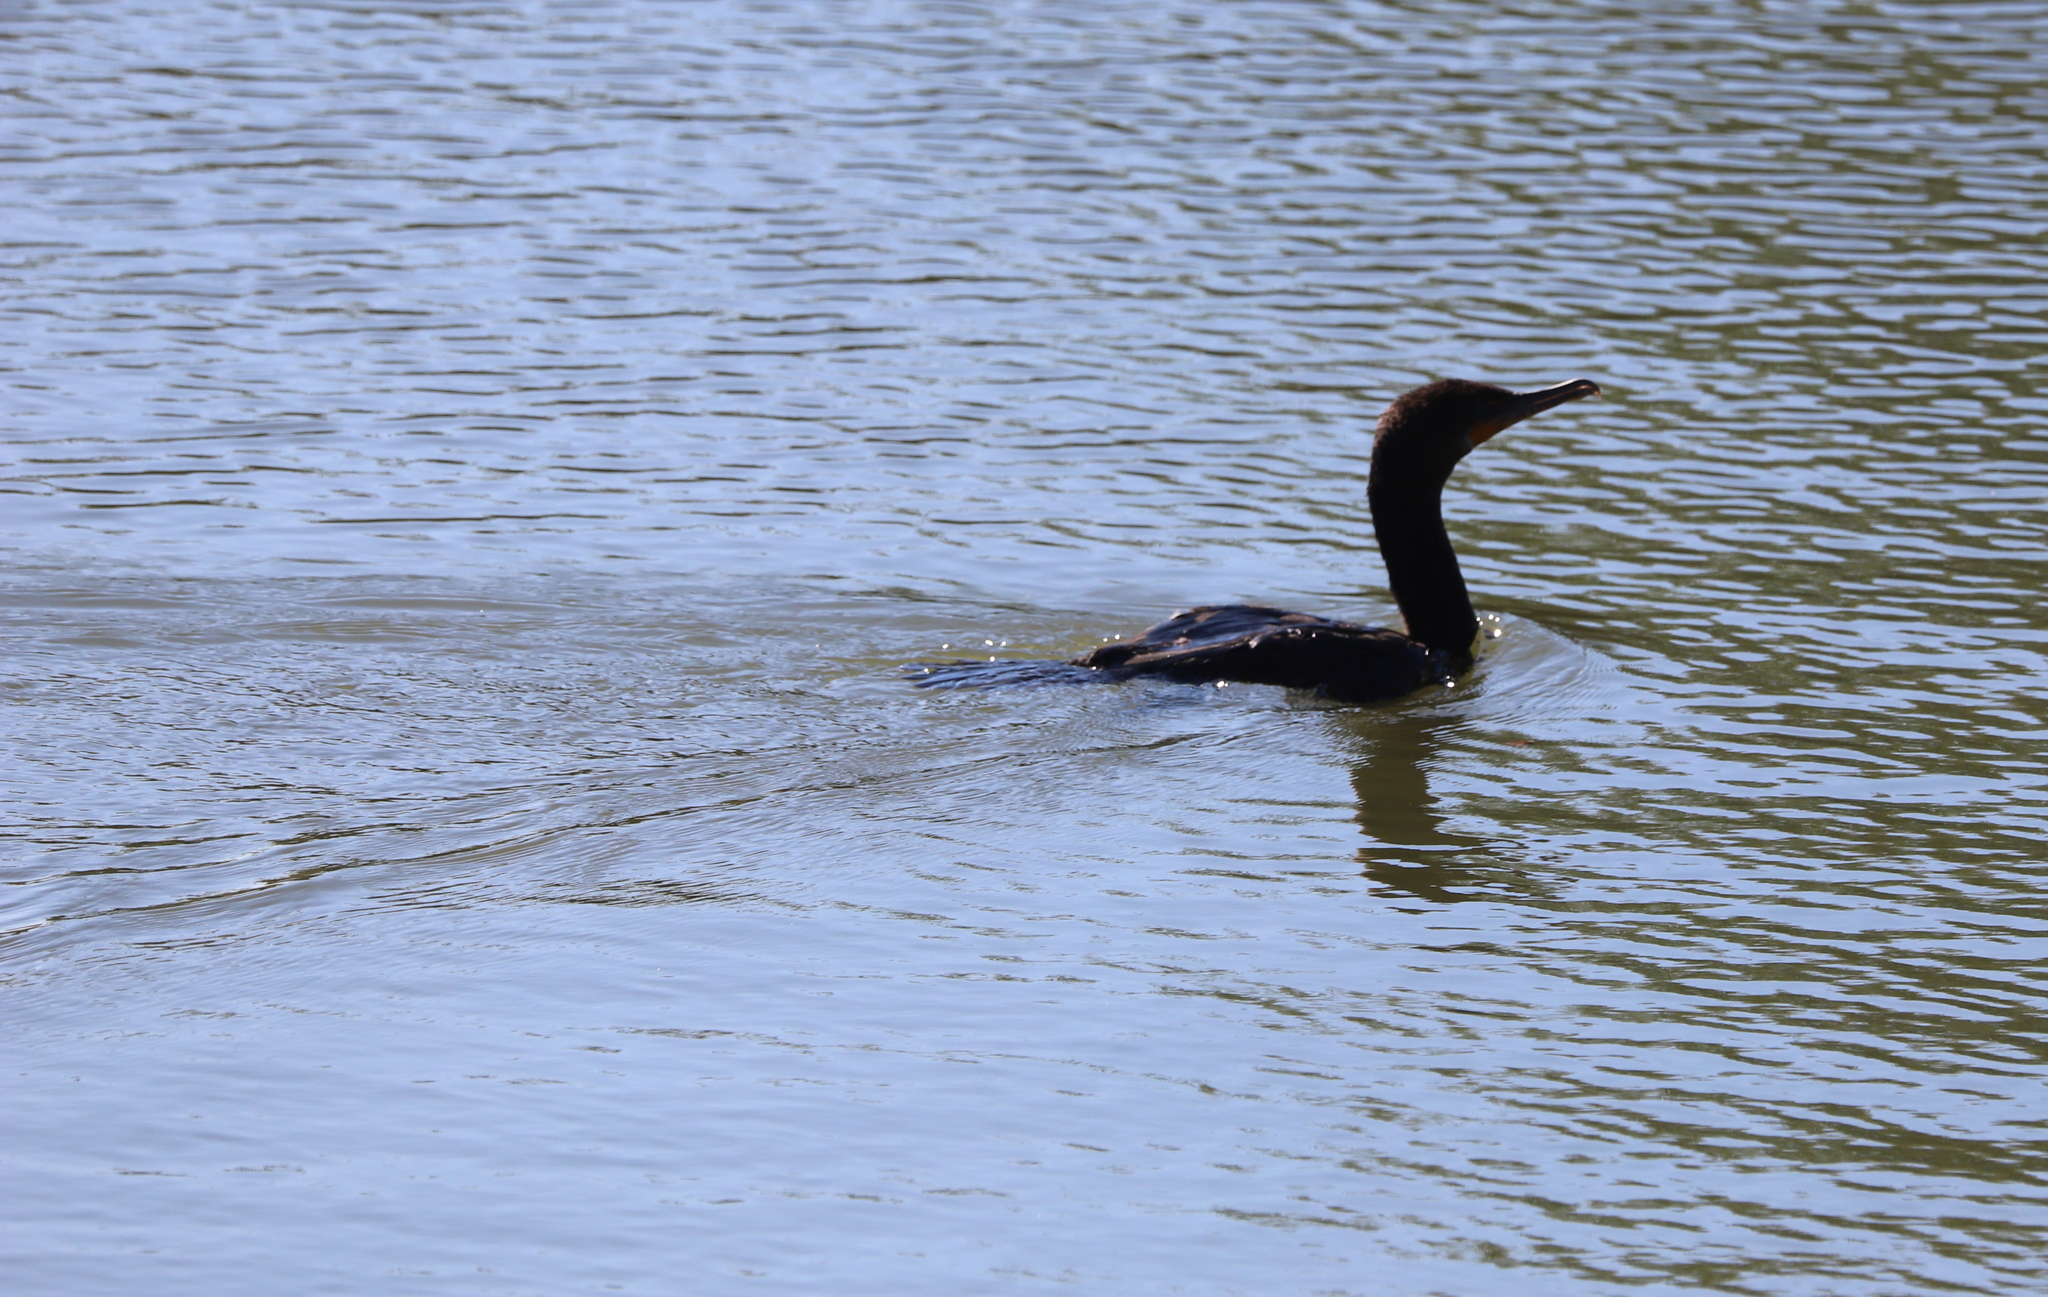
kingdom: Animalia
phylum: Chordata
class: Aves
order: Suliformes
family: Phalacrocoracidae
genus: Phalacrocorax
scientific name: Phalacrocorax auritus
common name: Double-crested cormorant
